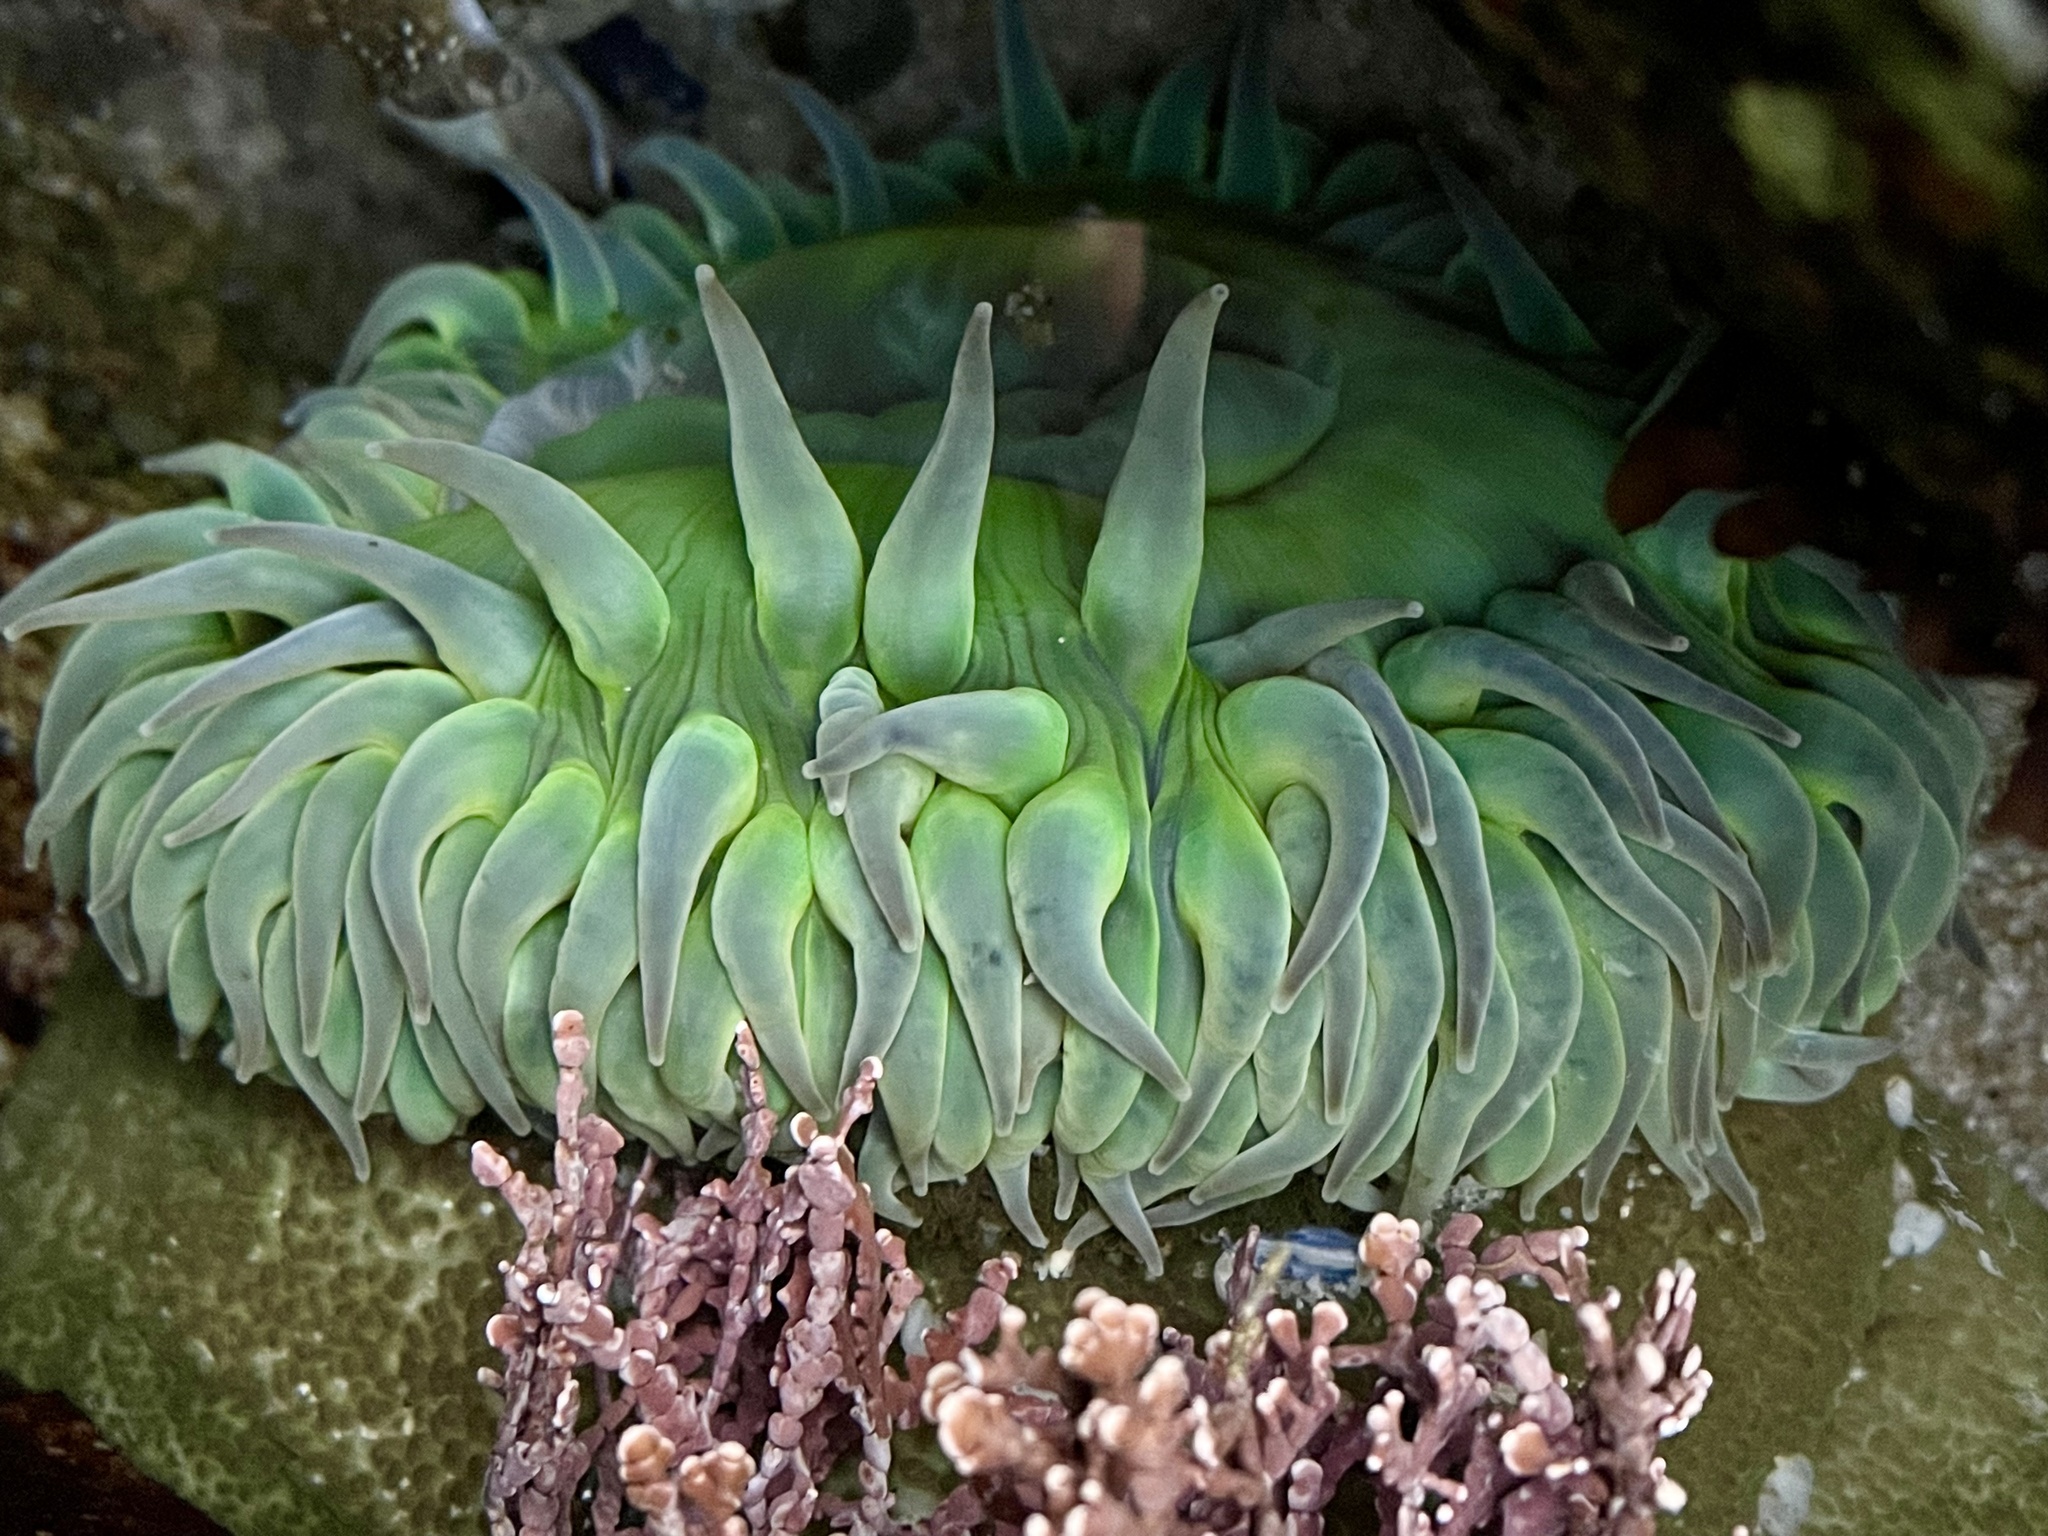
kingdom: Animalia
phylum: Cnidaria
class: Anthozoa
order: Actiniaria
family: Actiniidae
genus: Anthopleura
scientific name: Anthopleura xanthogrammica
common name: Giant green anemone
